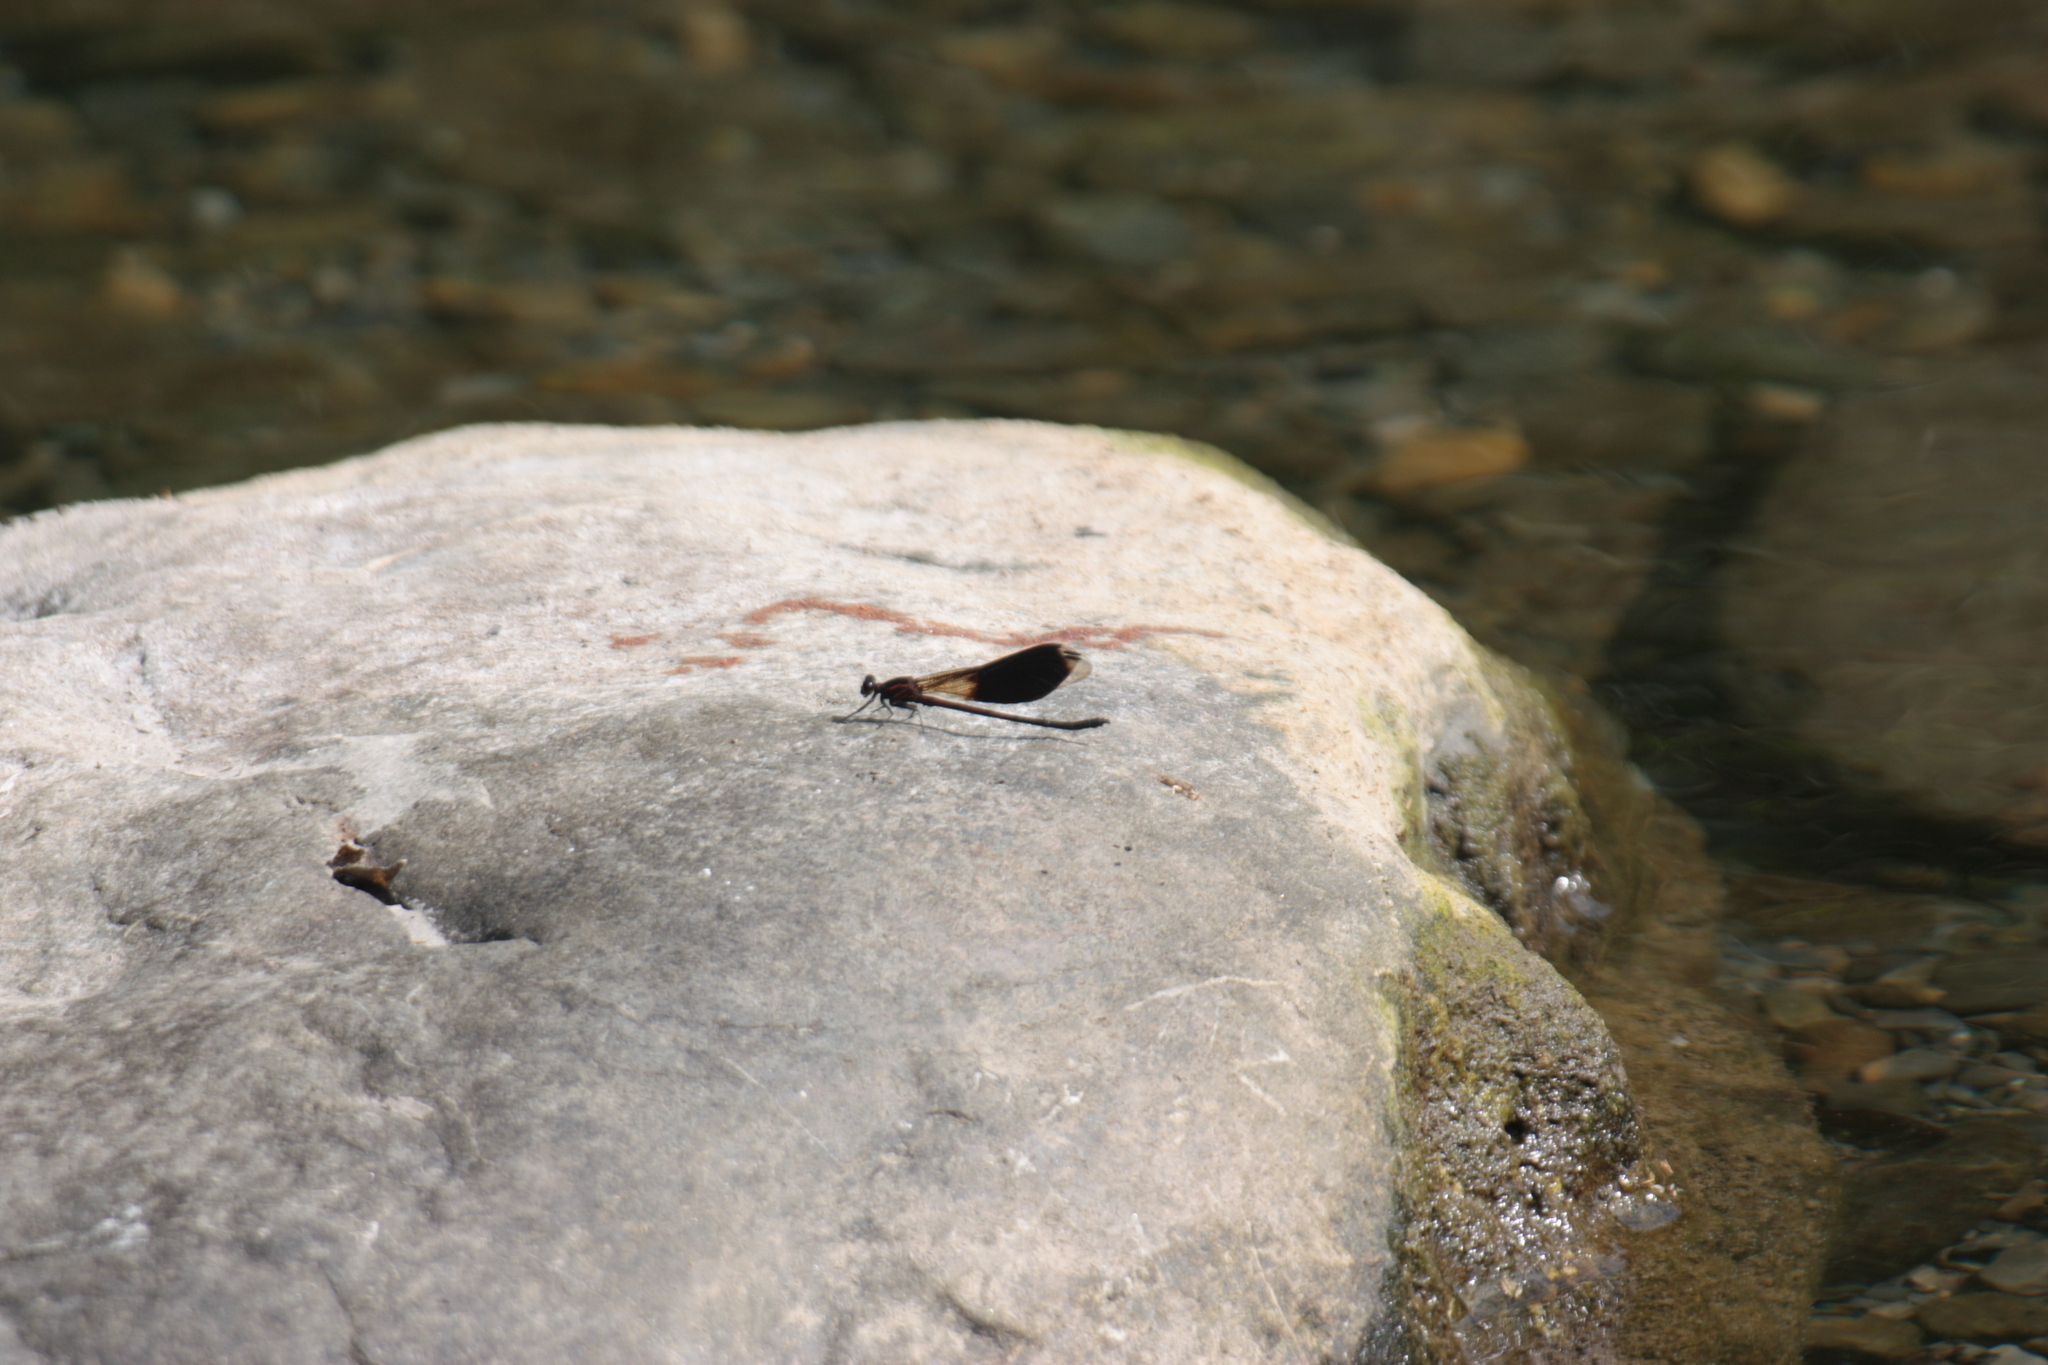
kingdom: Animalia
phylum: Arthropoda
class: Insecta
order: Odonata
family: Euphaeidae
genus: Euphaea
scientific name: Euphaea formosa
